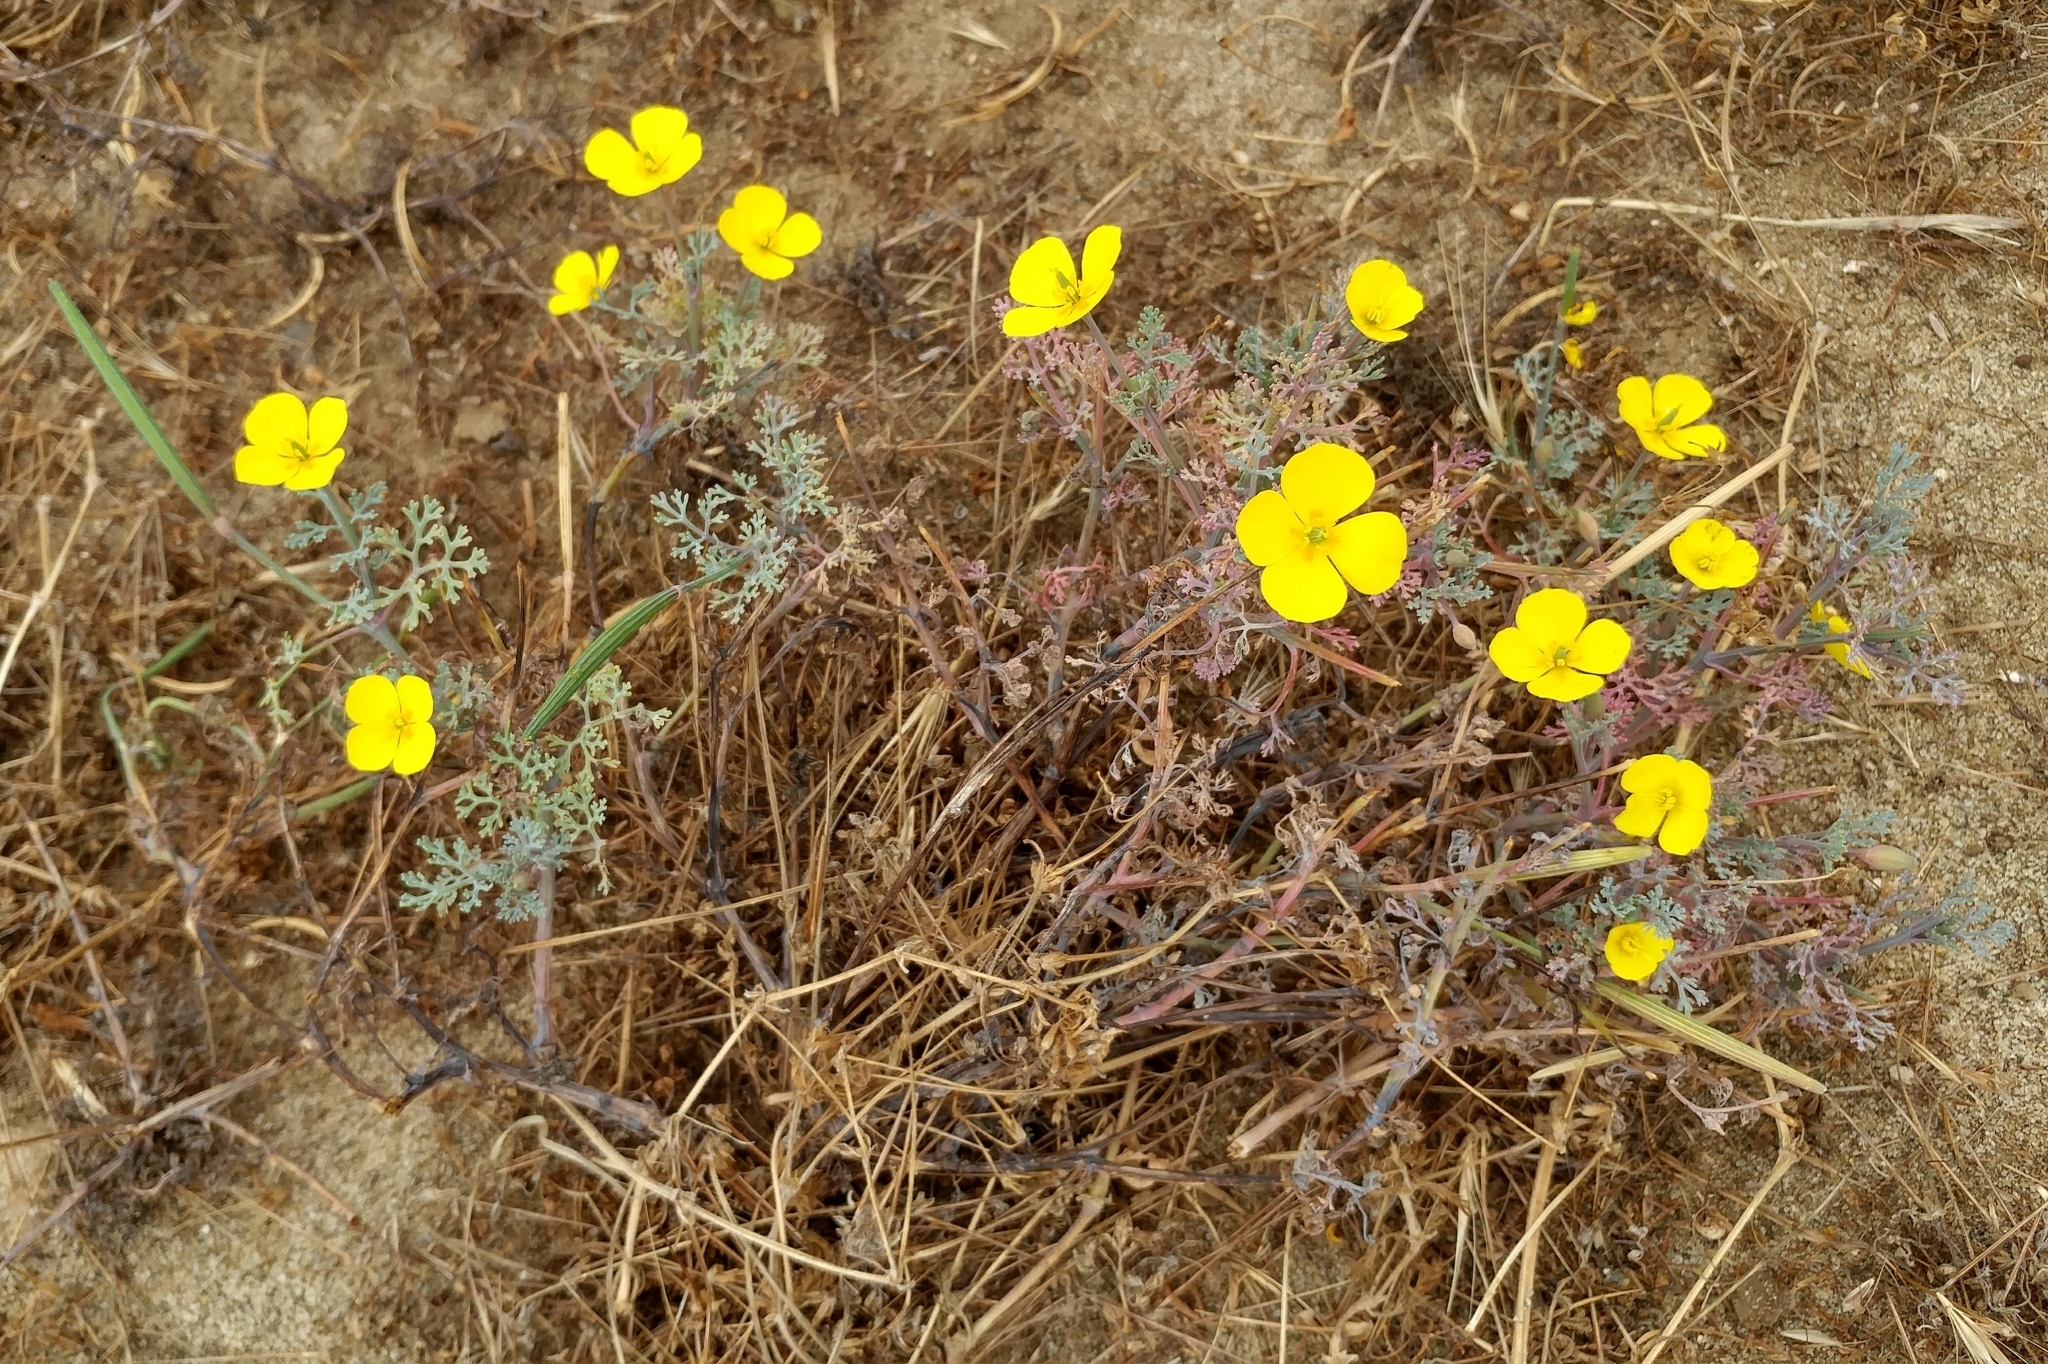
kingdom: Plantae
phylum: Tracheophyta
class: Magnoliopsida
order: Ranunculales
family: Papaveraceae
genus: Eschscholzia
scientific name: Eschscholzia ramosa
